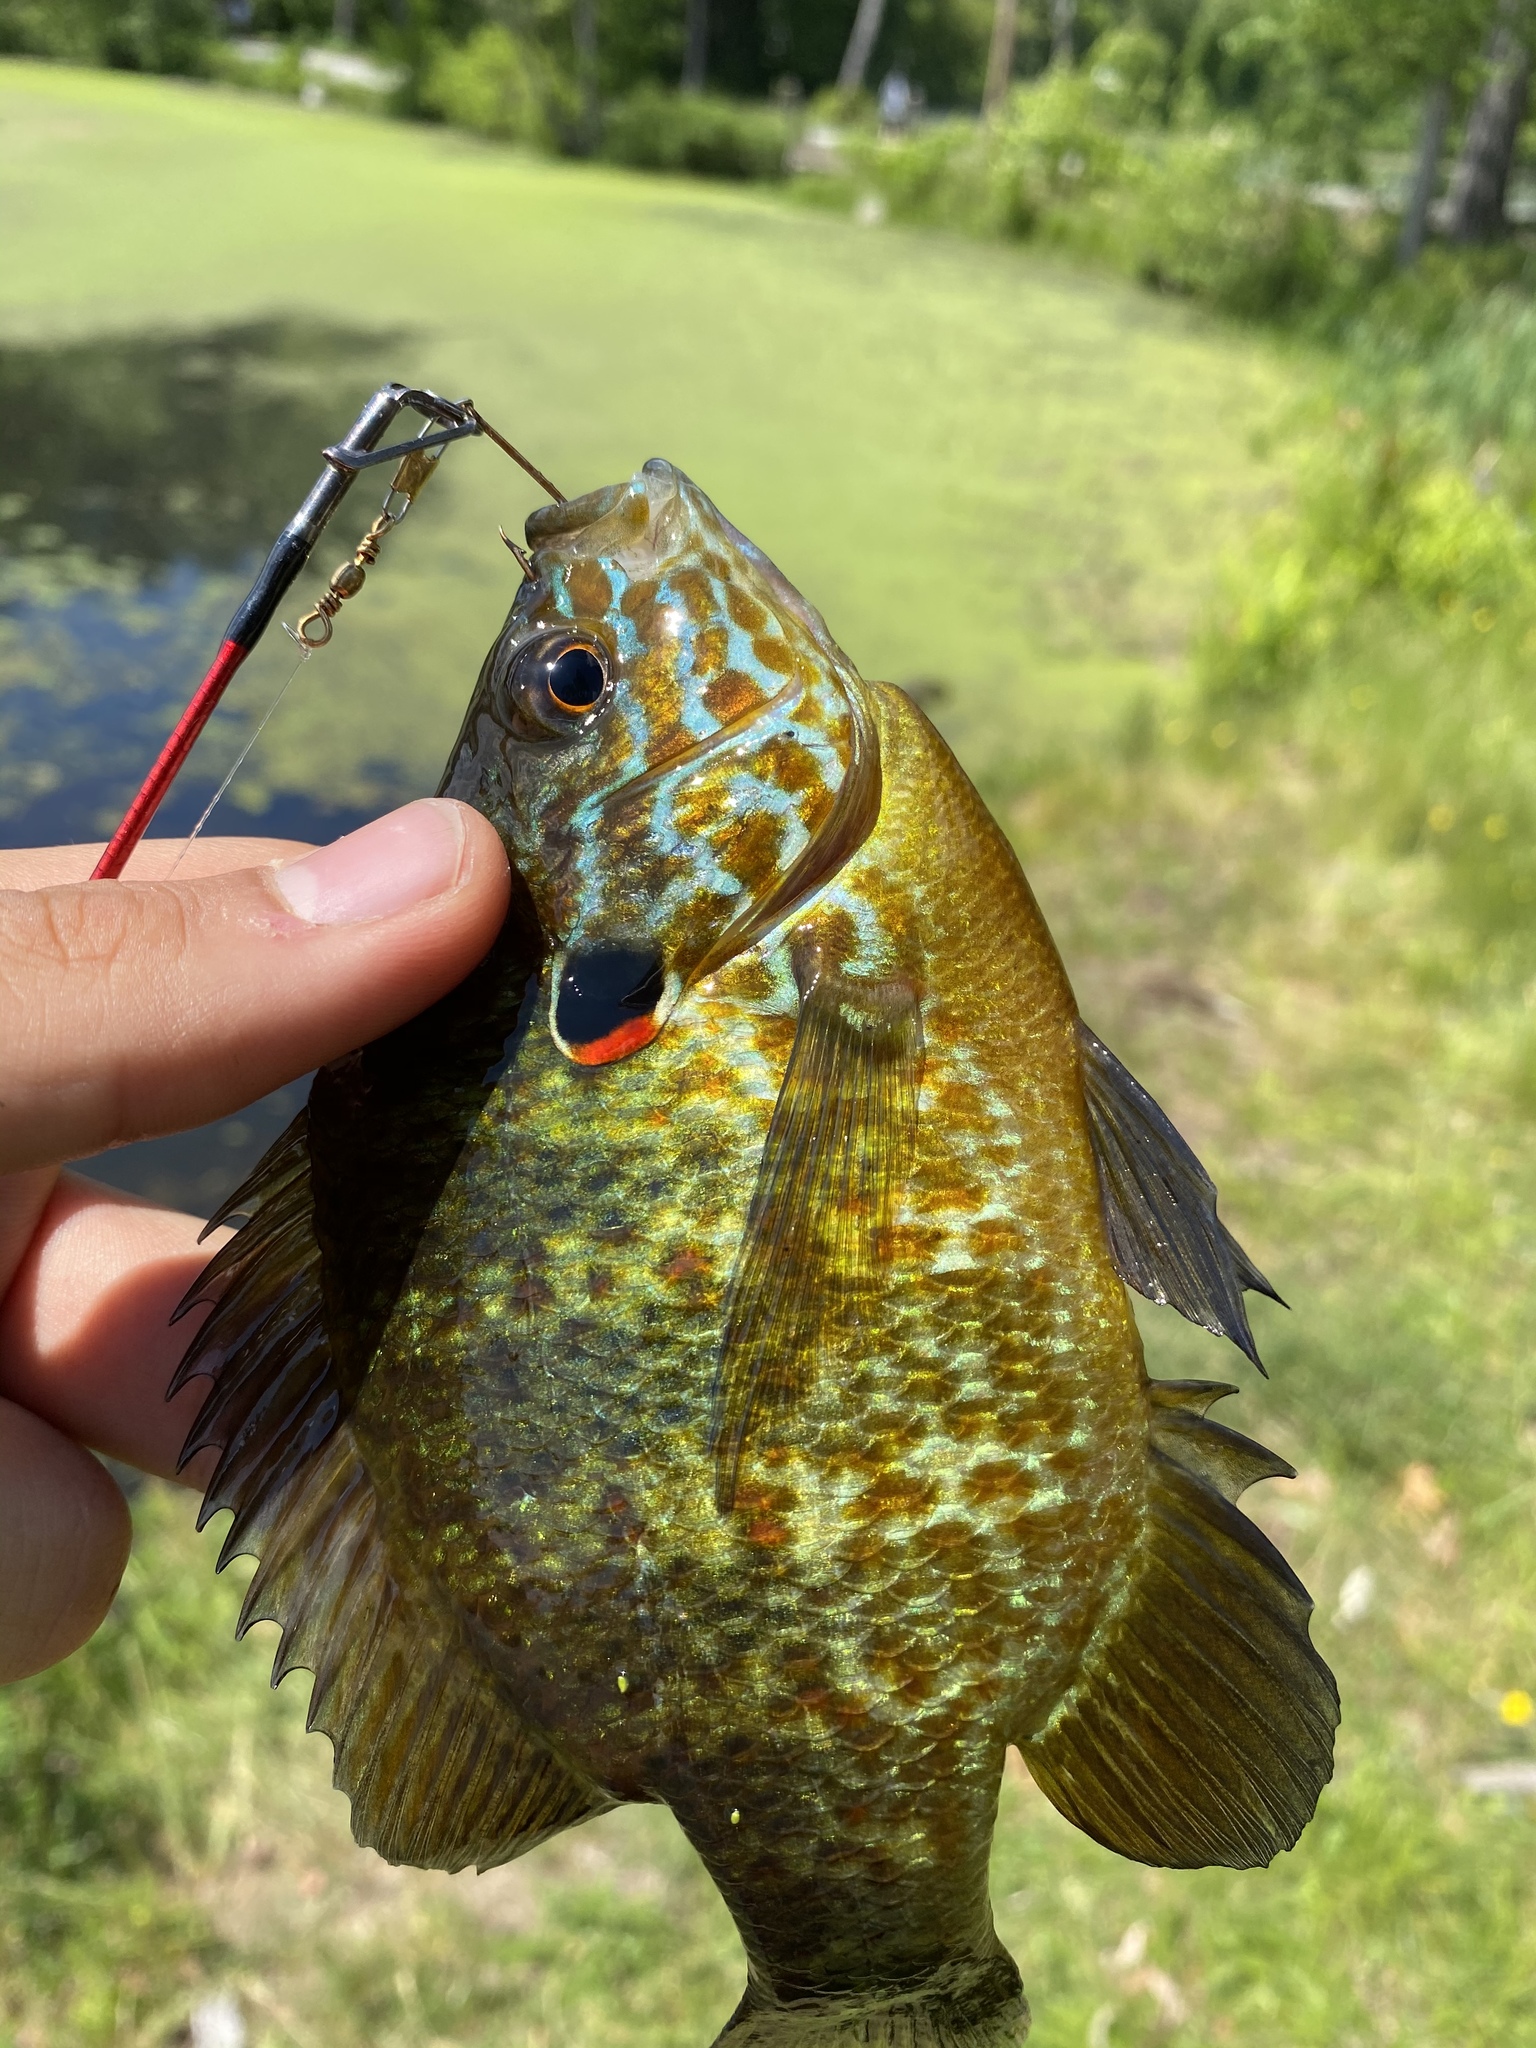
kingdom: Animalia
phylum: Chordata
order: Perciformes
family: Centrarchidae
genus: Lepomis
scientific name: Lepomis gibbosus
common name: Pumpkinseed
